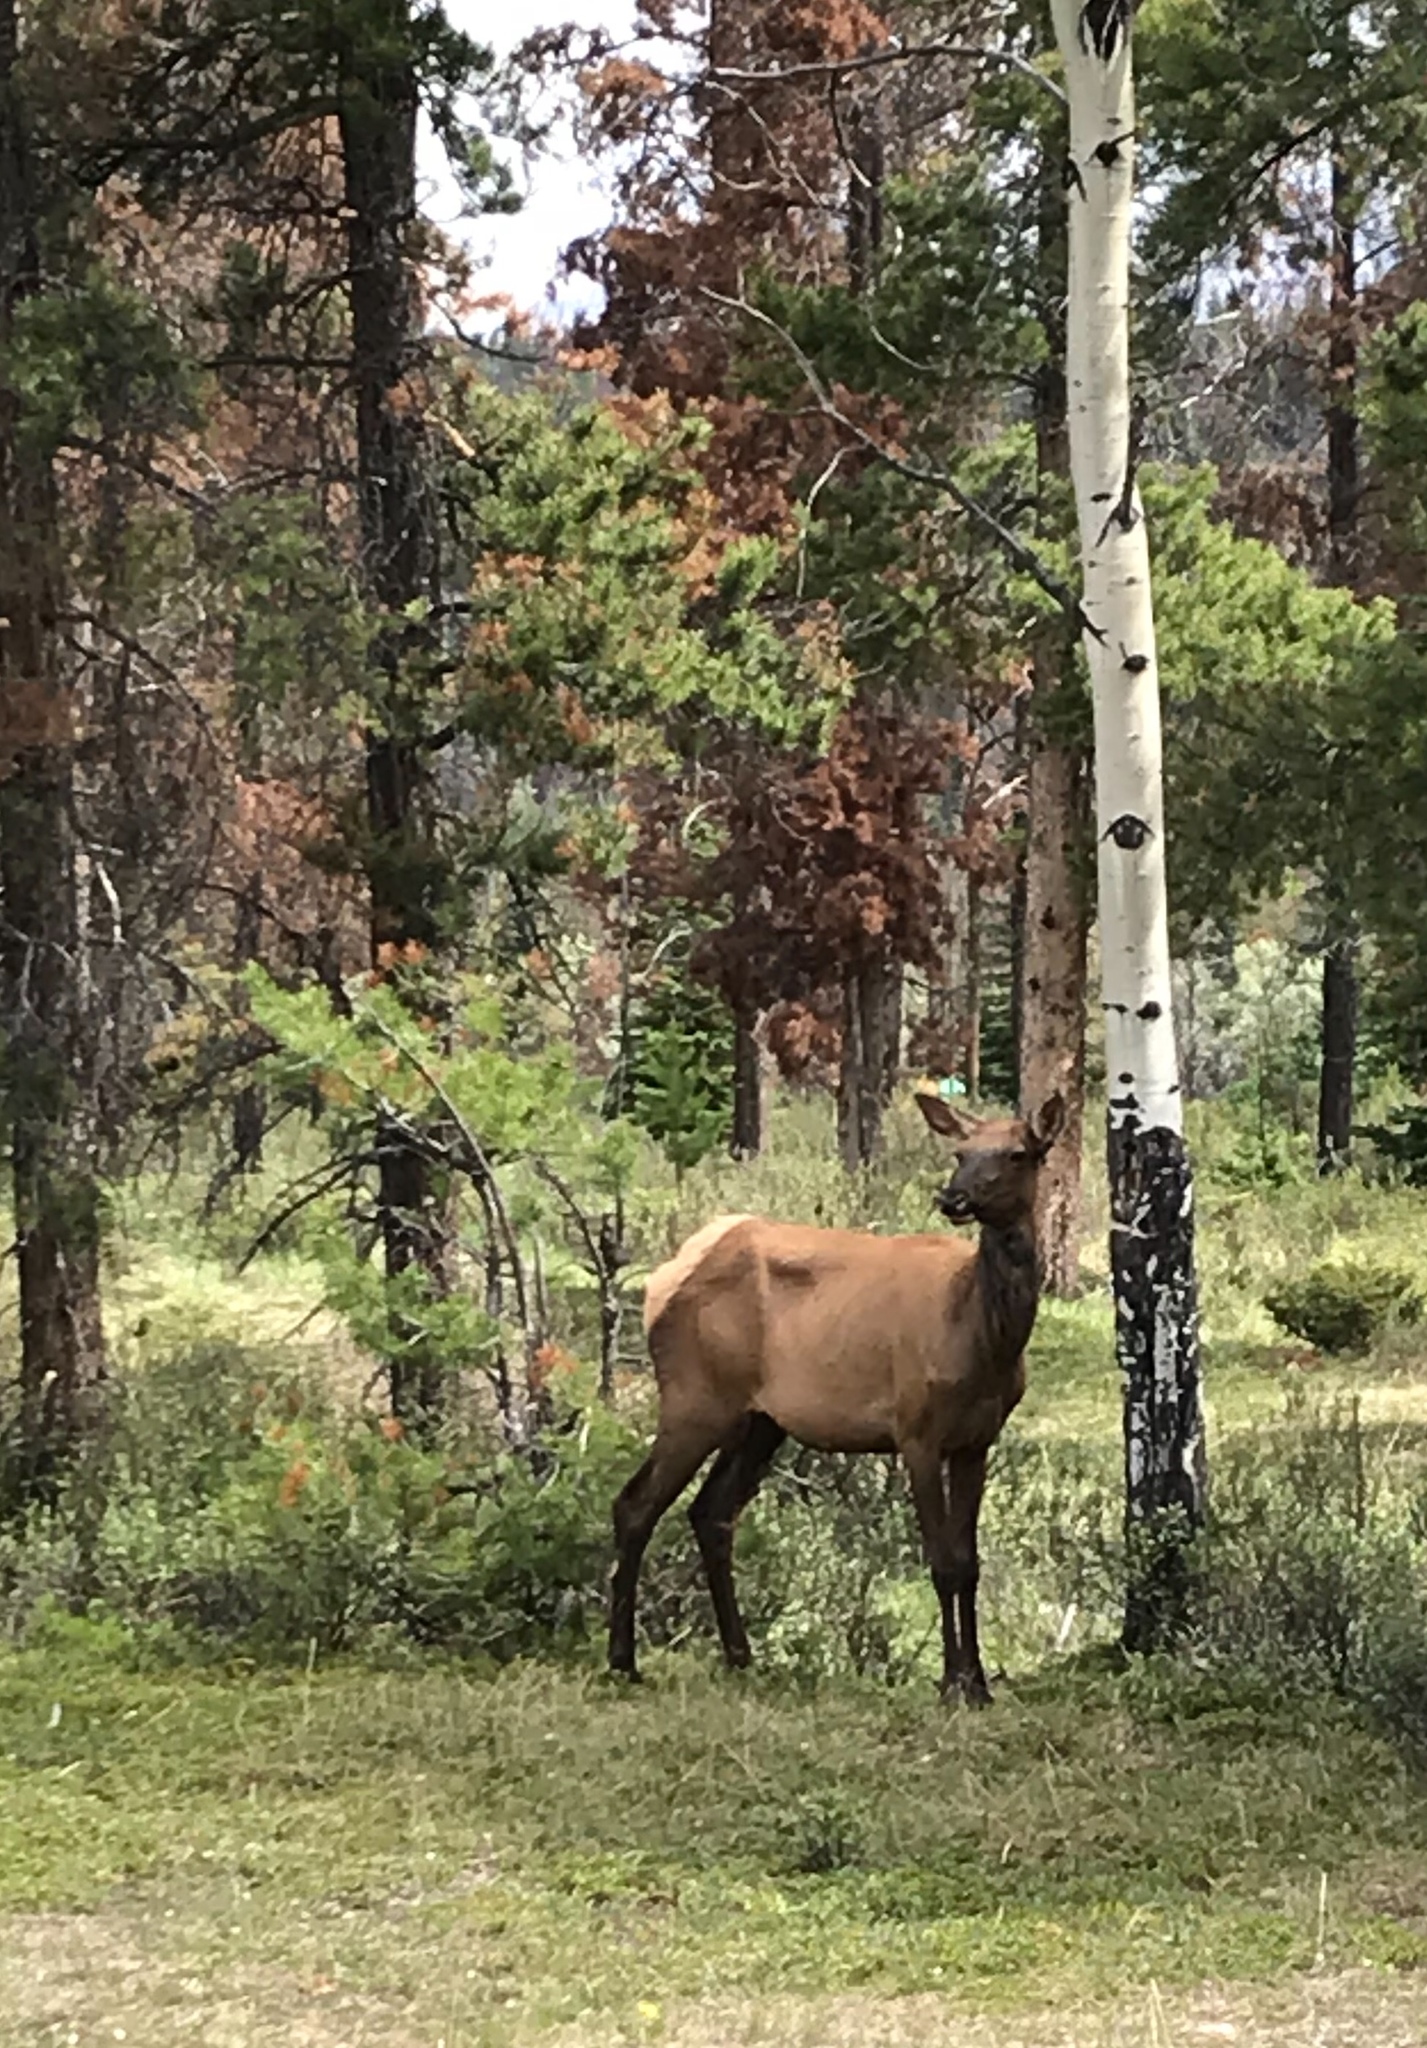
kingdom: Animalia
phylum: Chordata
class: Mammalia
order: Artiodactyla
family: Cervidae
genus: Cervus
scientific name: Cervus elaphus
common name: Red deer
